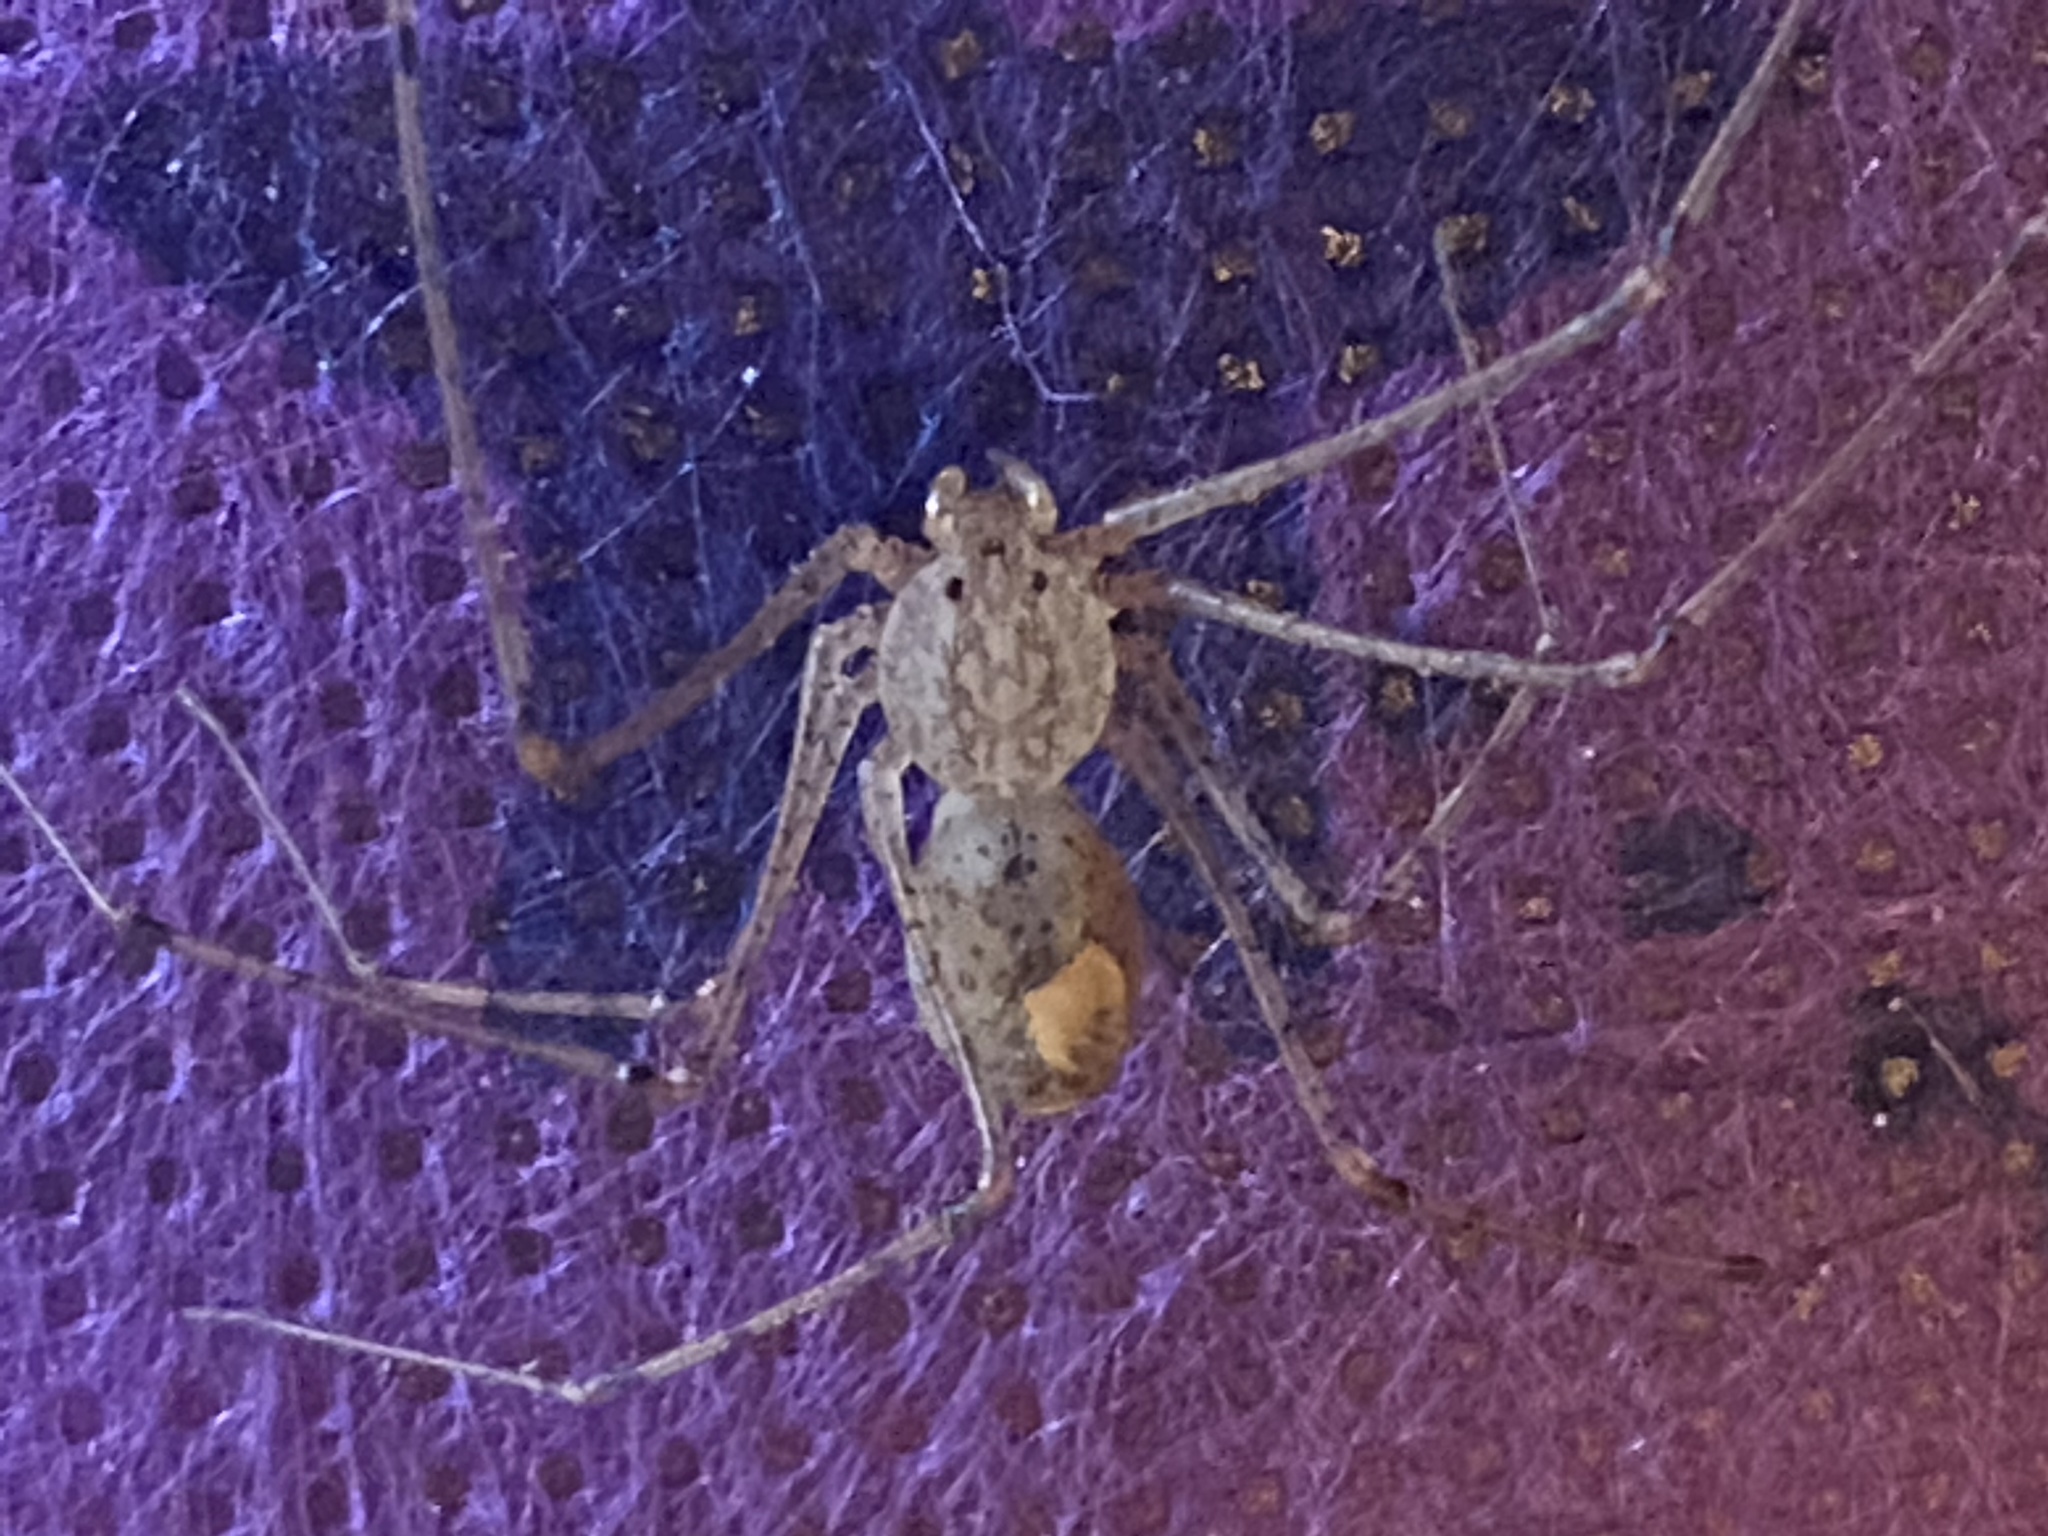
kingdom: Animalia
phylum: Arthropoda
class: Arachnida
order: Araneae
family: Scytodidae
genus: Scytodes
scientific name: Scytodes atlacoya
